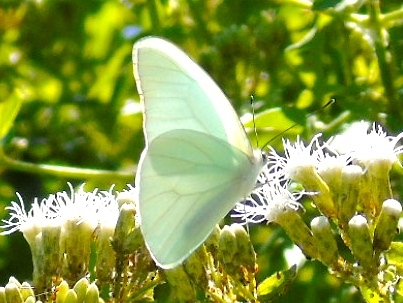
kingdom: Animalia
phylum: Arthropoda
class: Insecta
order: Lepidoptera
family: Pieridae
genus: Glutophrissa
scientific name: Glutophrissa drusilla
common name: Florida white
